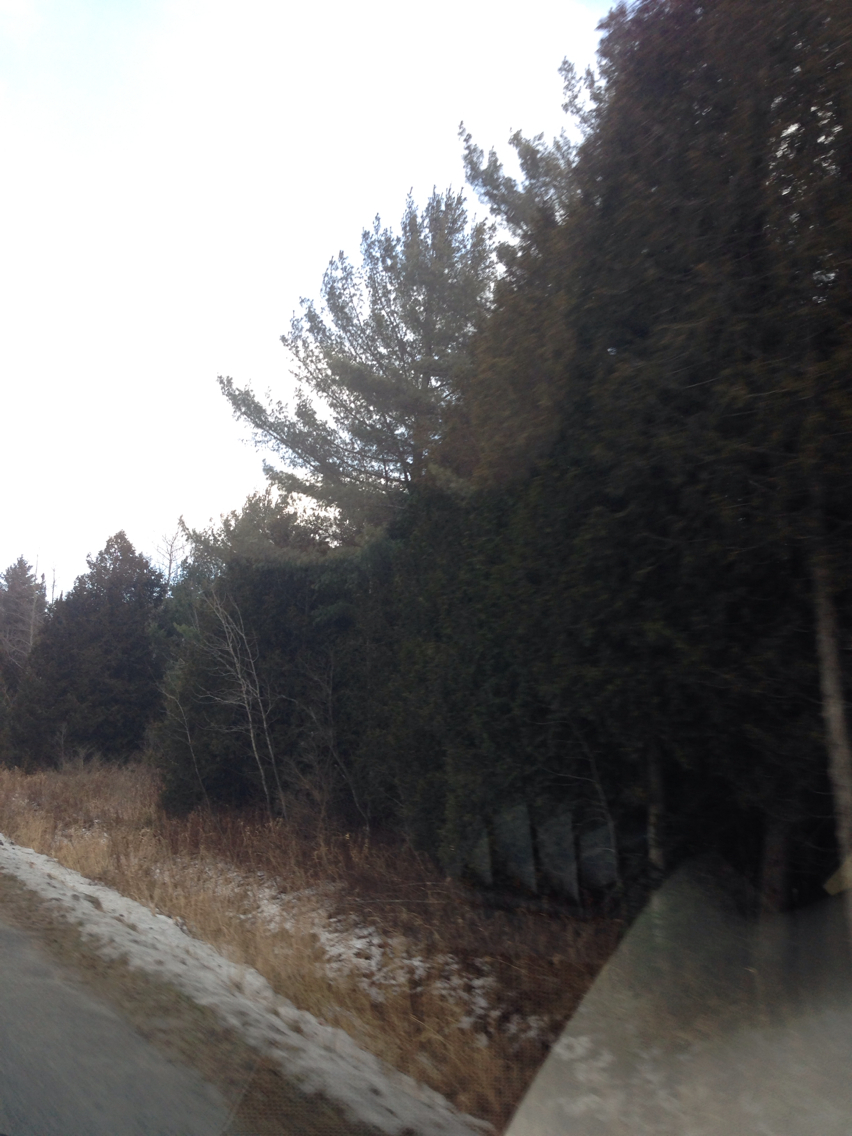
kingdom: Plantae
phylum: Tracheophyta
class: Pinopsida
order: Pinales
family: Cupressaceae
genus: Thuja
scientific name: Thuja occidentalis
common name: Northern white-cedar
